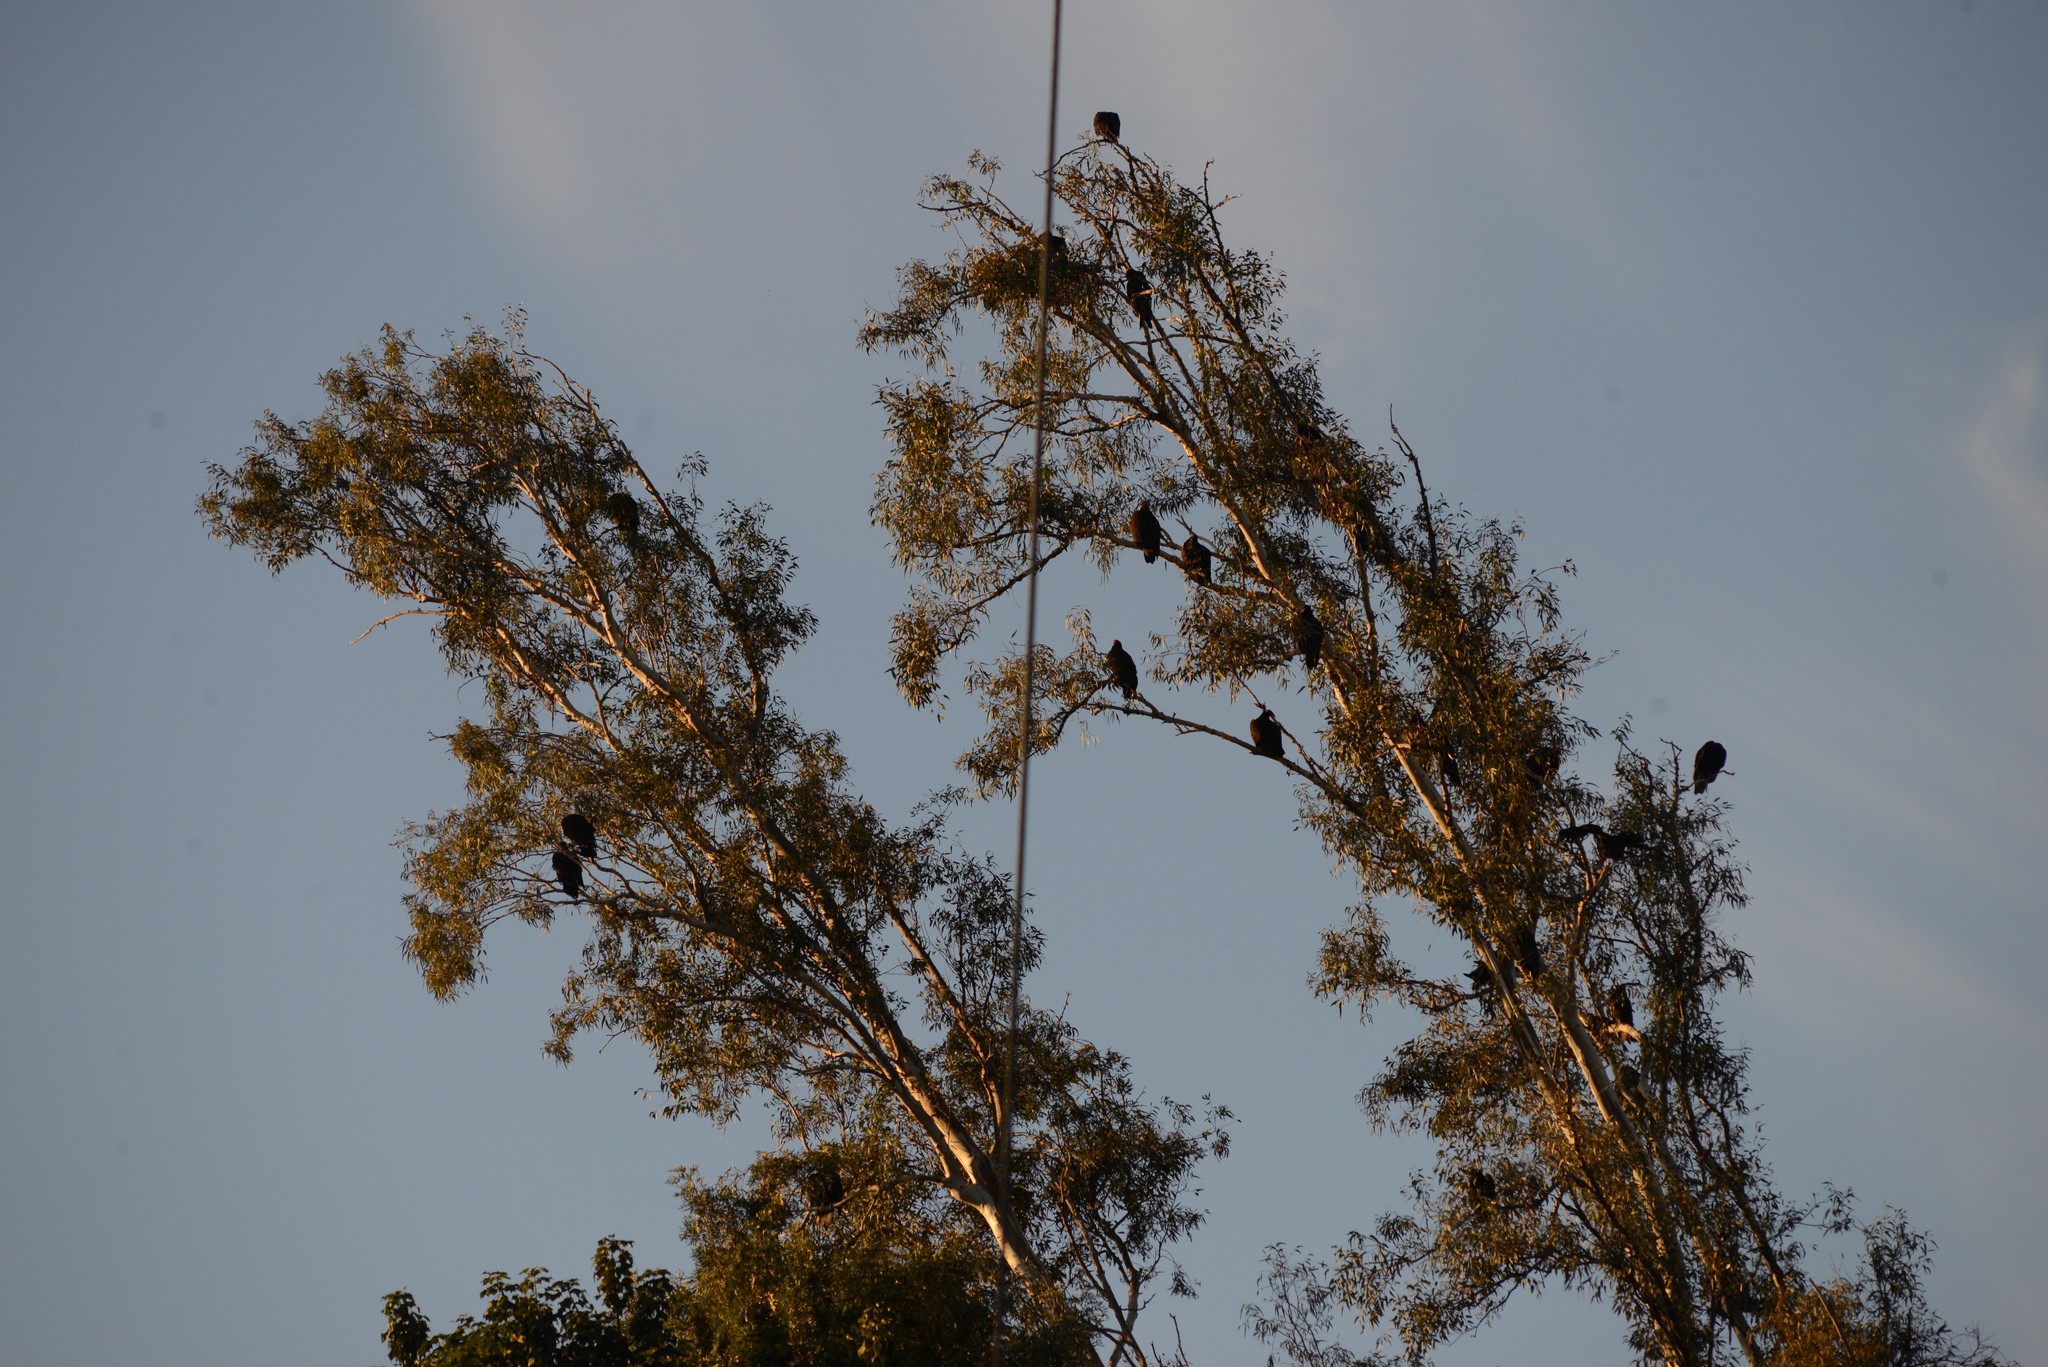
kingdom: Animalia
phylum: Chordata
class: Aves
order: Accipitriformes
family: Cathartidae
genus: Cathartes
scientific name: Cathartes aura
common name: Turkey vulture
